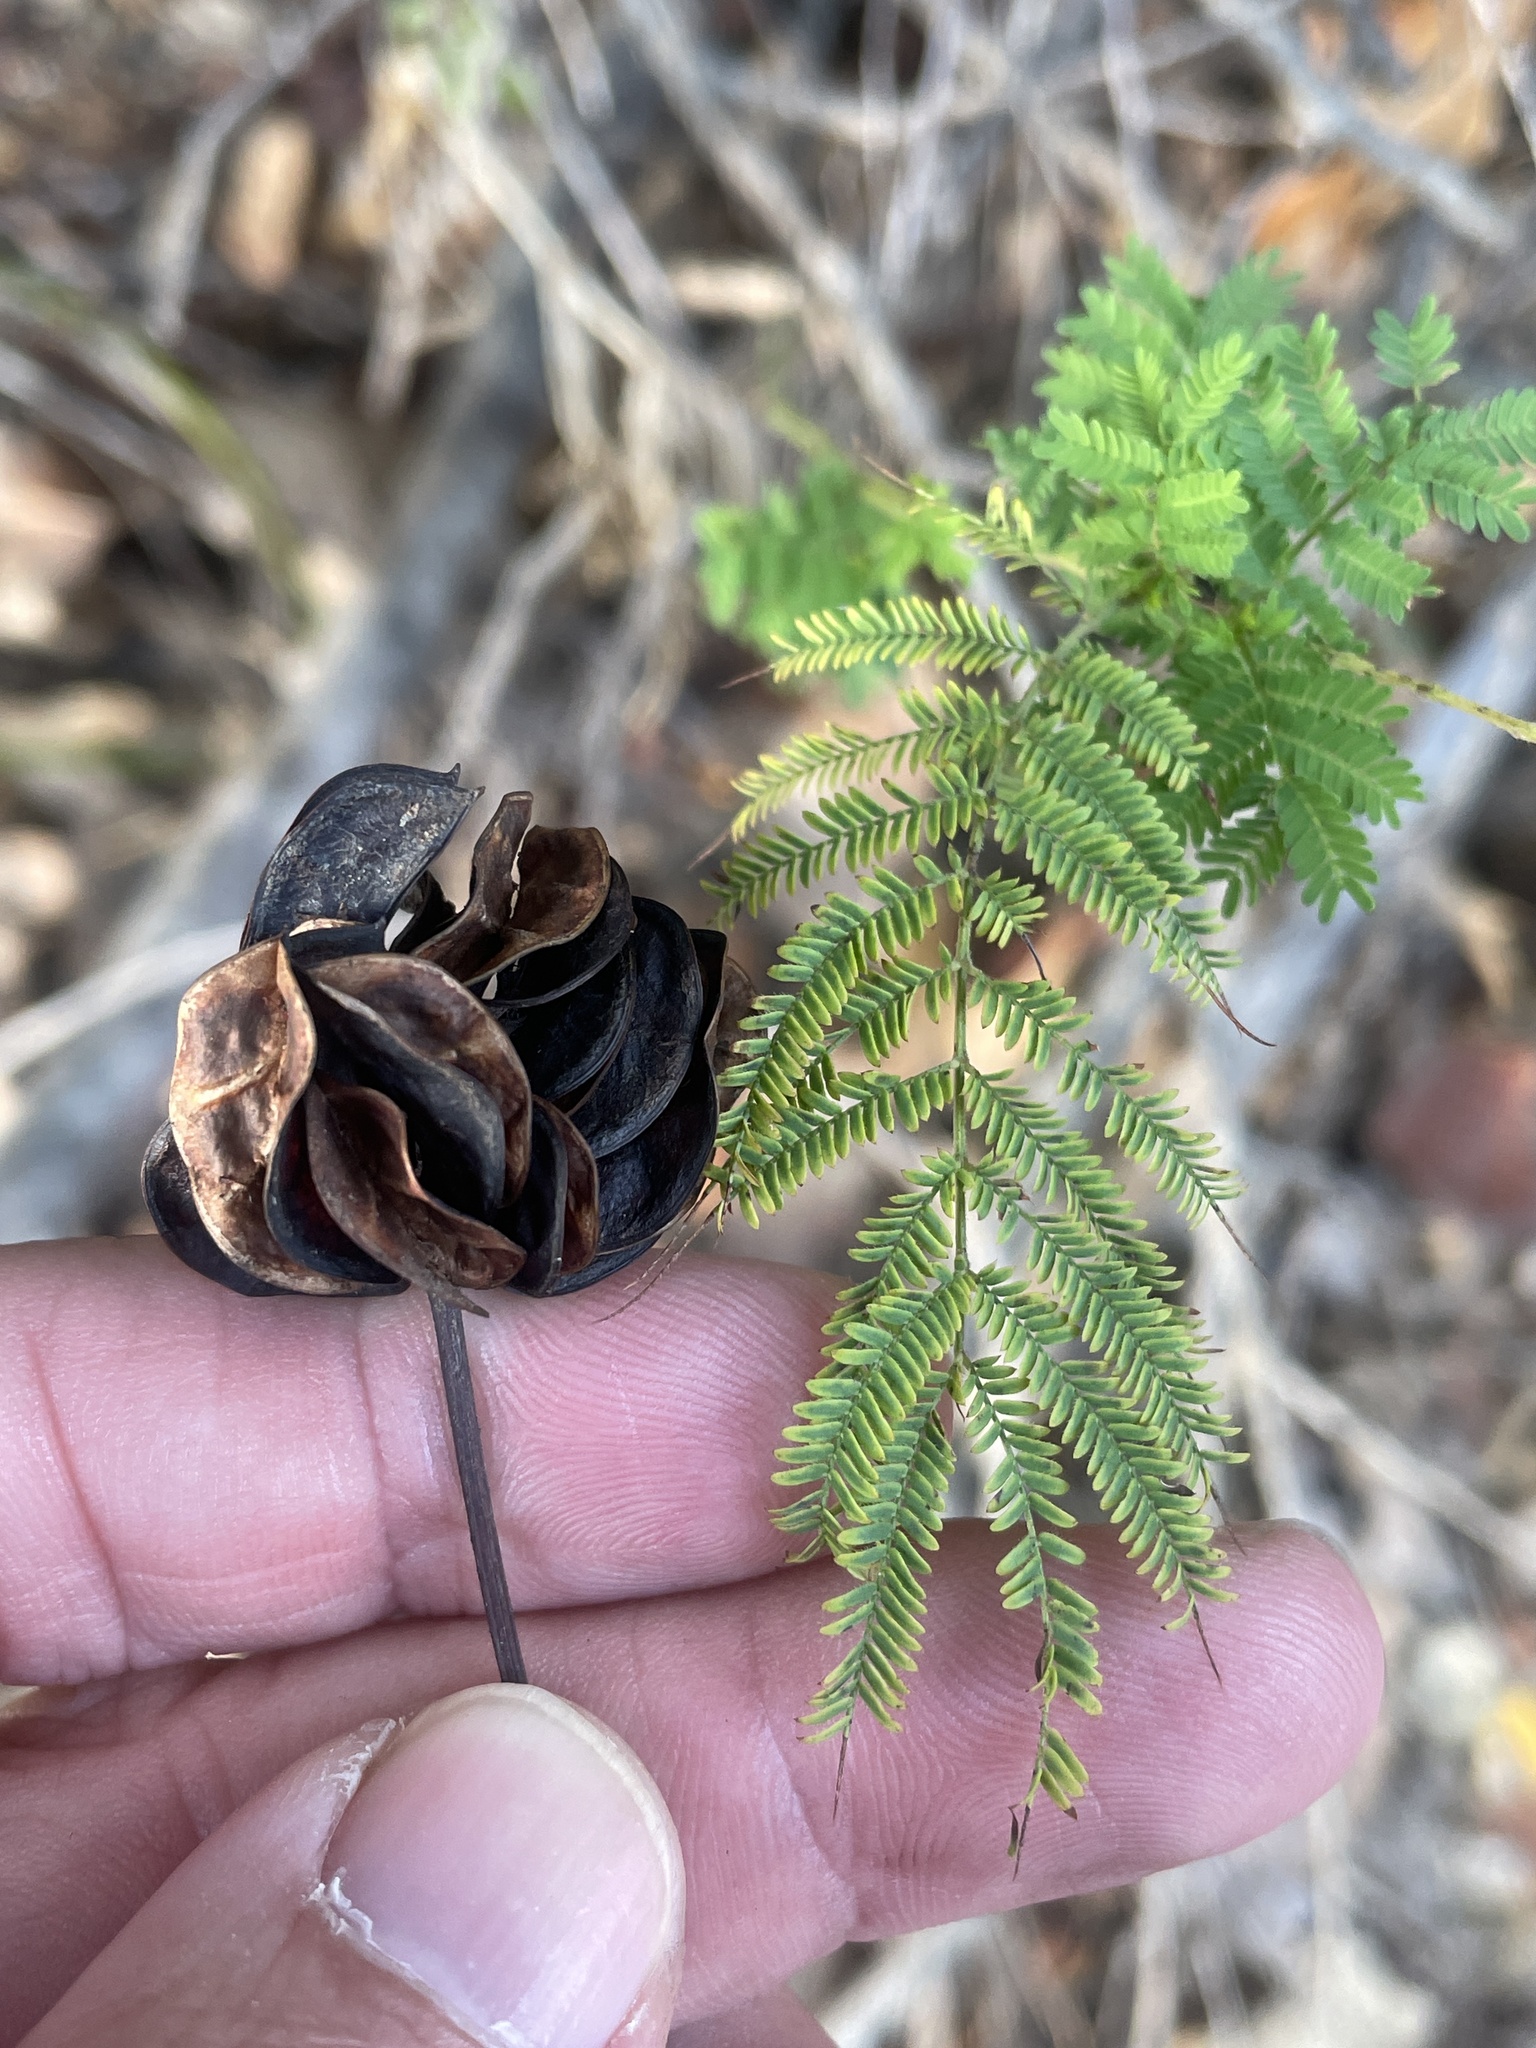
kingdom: Plantae
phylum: Tracheophyta
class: Magnoliopsida
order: Fabales
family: Fabaceae
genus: Desmanthus
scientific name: Desmanthus illinoensis
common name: Illinois bundle-flower
